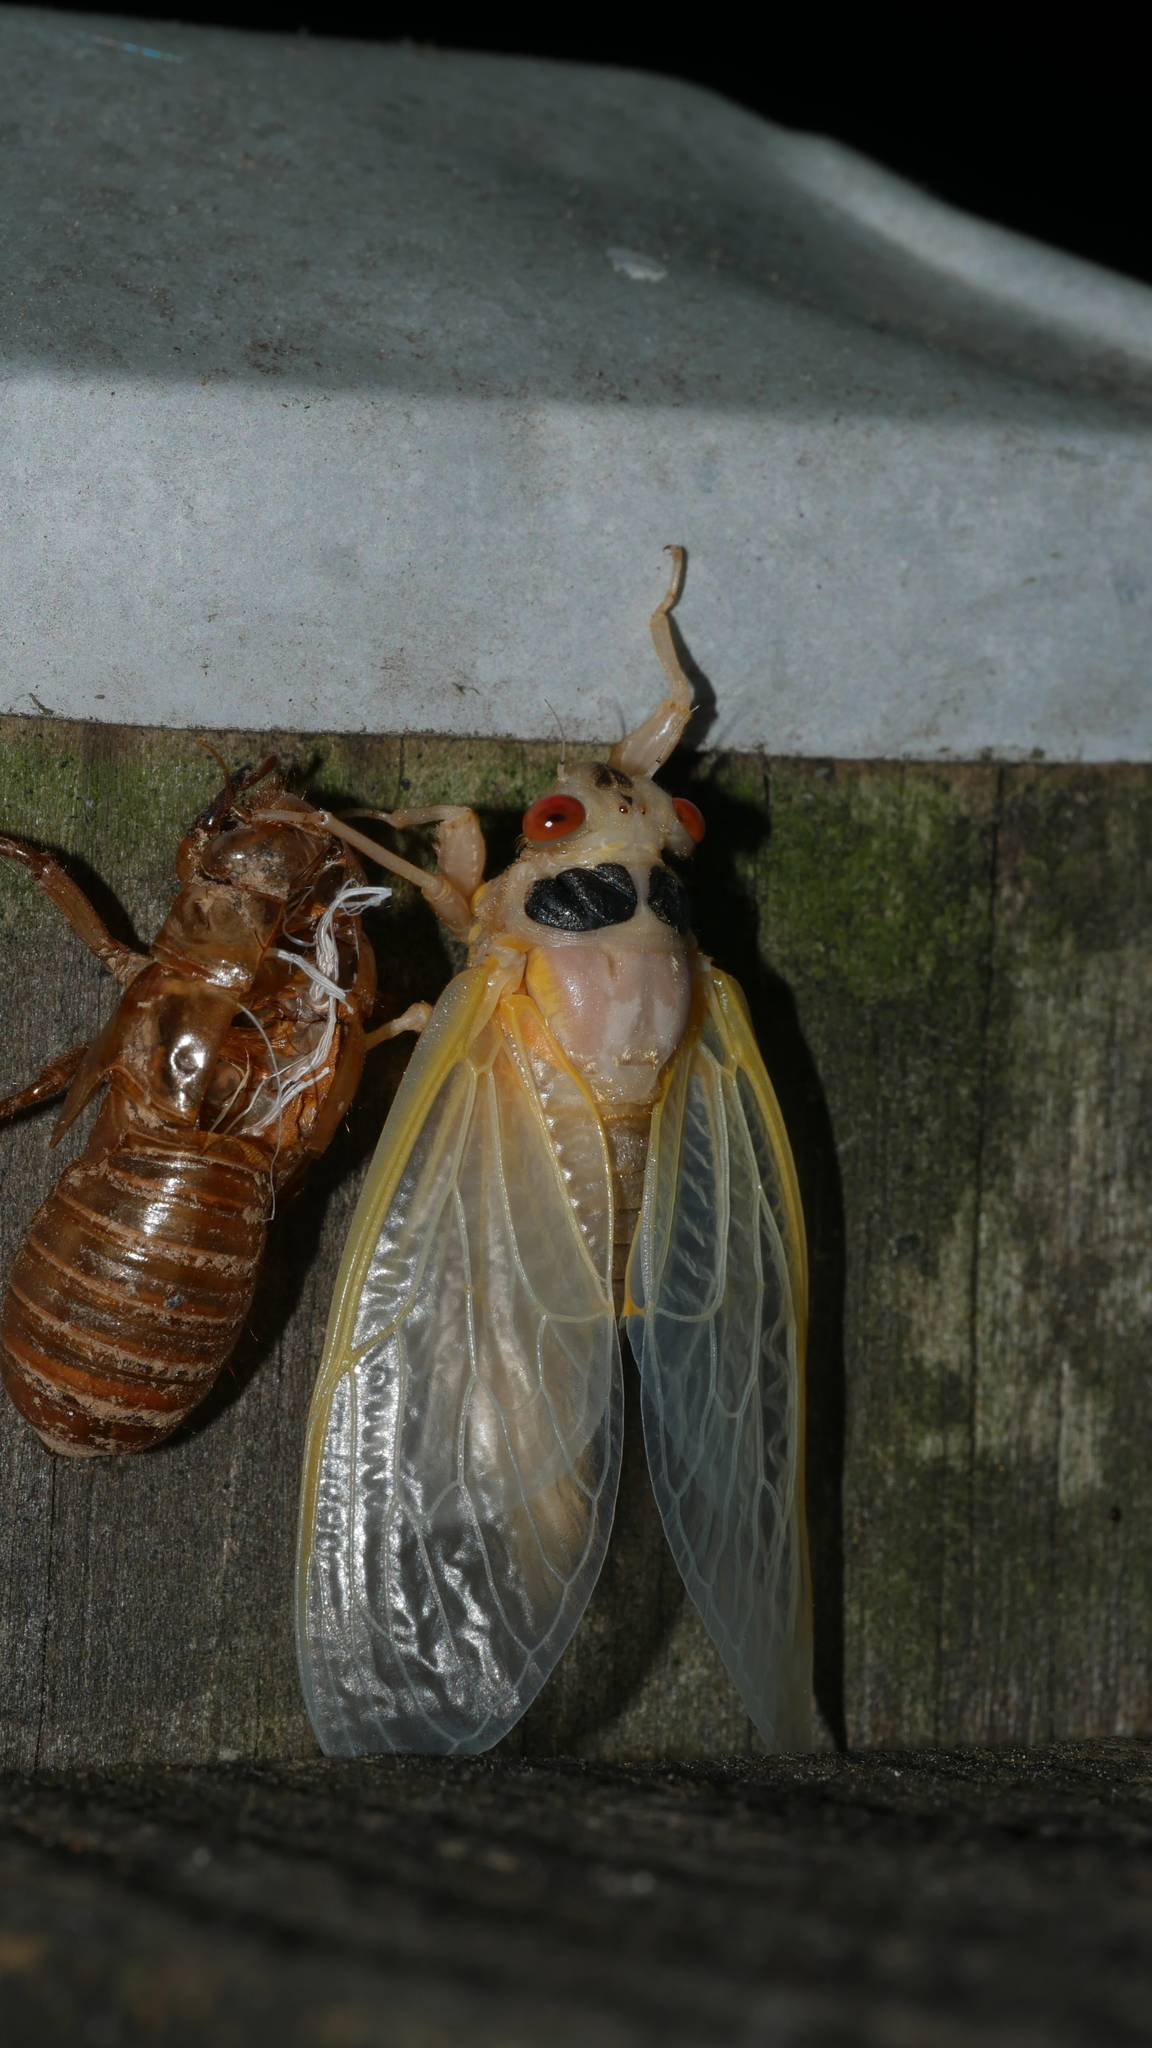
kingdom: Animalia
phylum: Arthropoda
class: Insecta
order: Hemiptera
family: Cicadidae
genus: Magicicada
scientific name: Magicicada
